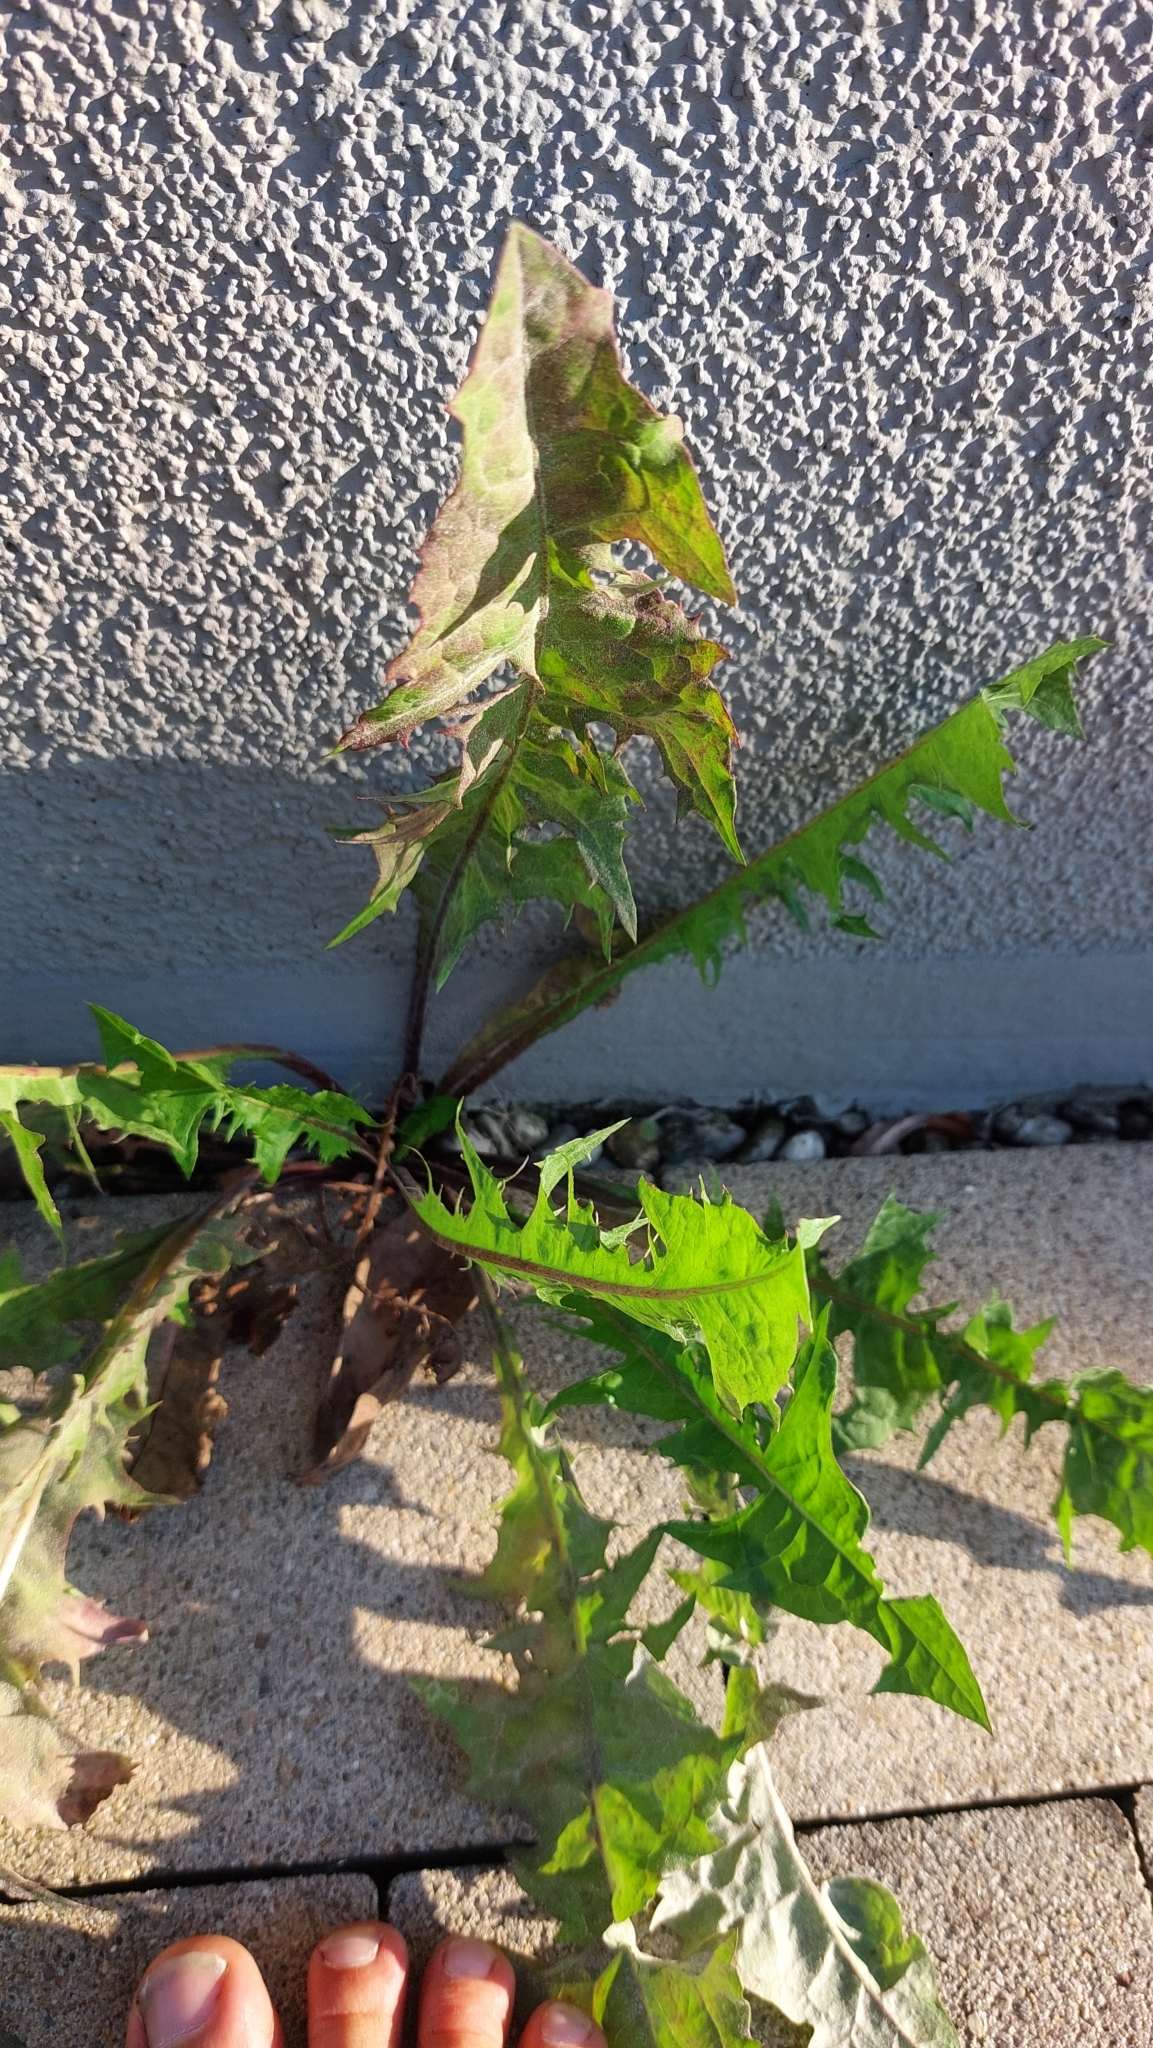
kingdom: Plantae
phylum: Tracheophyta
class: Magnoliopsida
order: Asterales
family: Asteraceae
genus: Taraxacum
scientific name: Taraxacum
